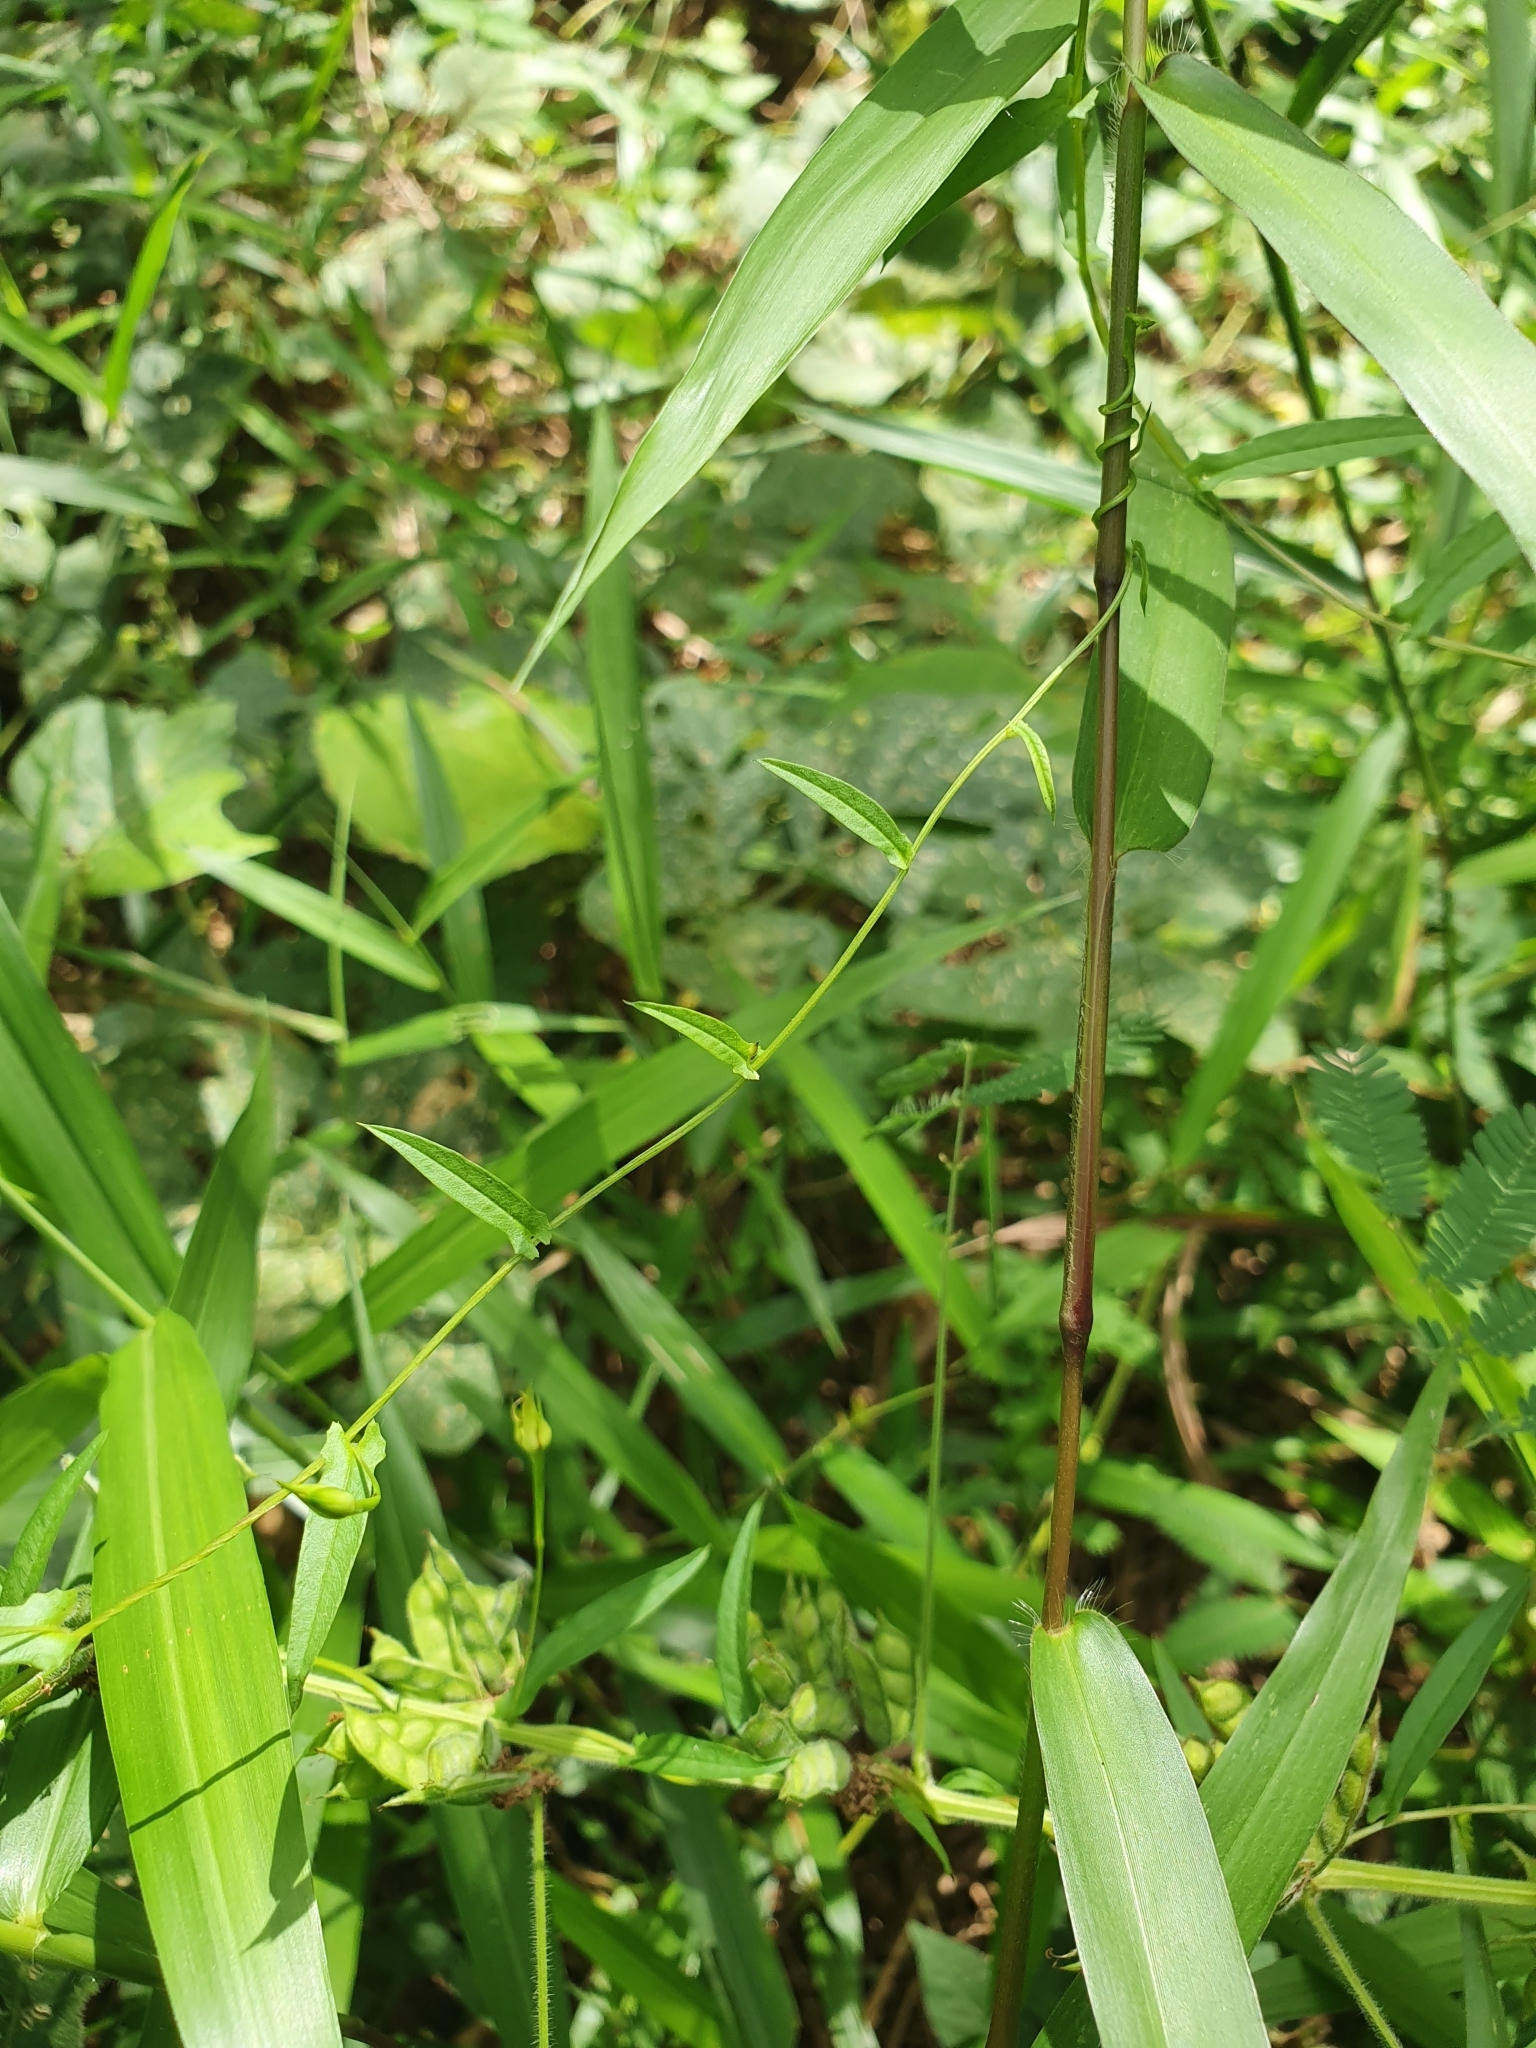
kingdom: Plantae
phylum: Tracheophyta
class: Magnoliopsida
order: Solanales
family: Convolvulaceae
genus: Xenostegia
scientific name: Xenostegia tridentata
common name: African morningvine
